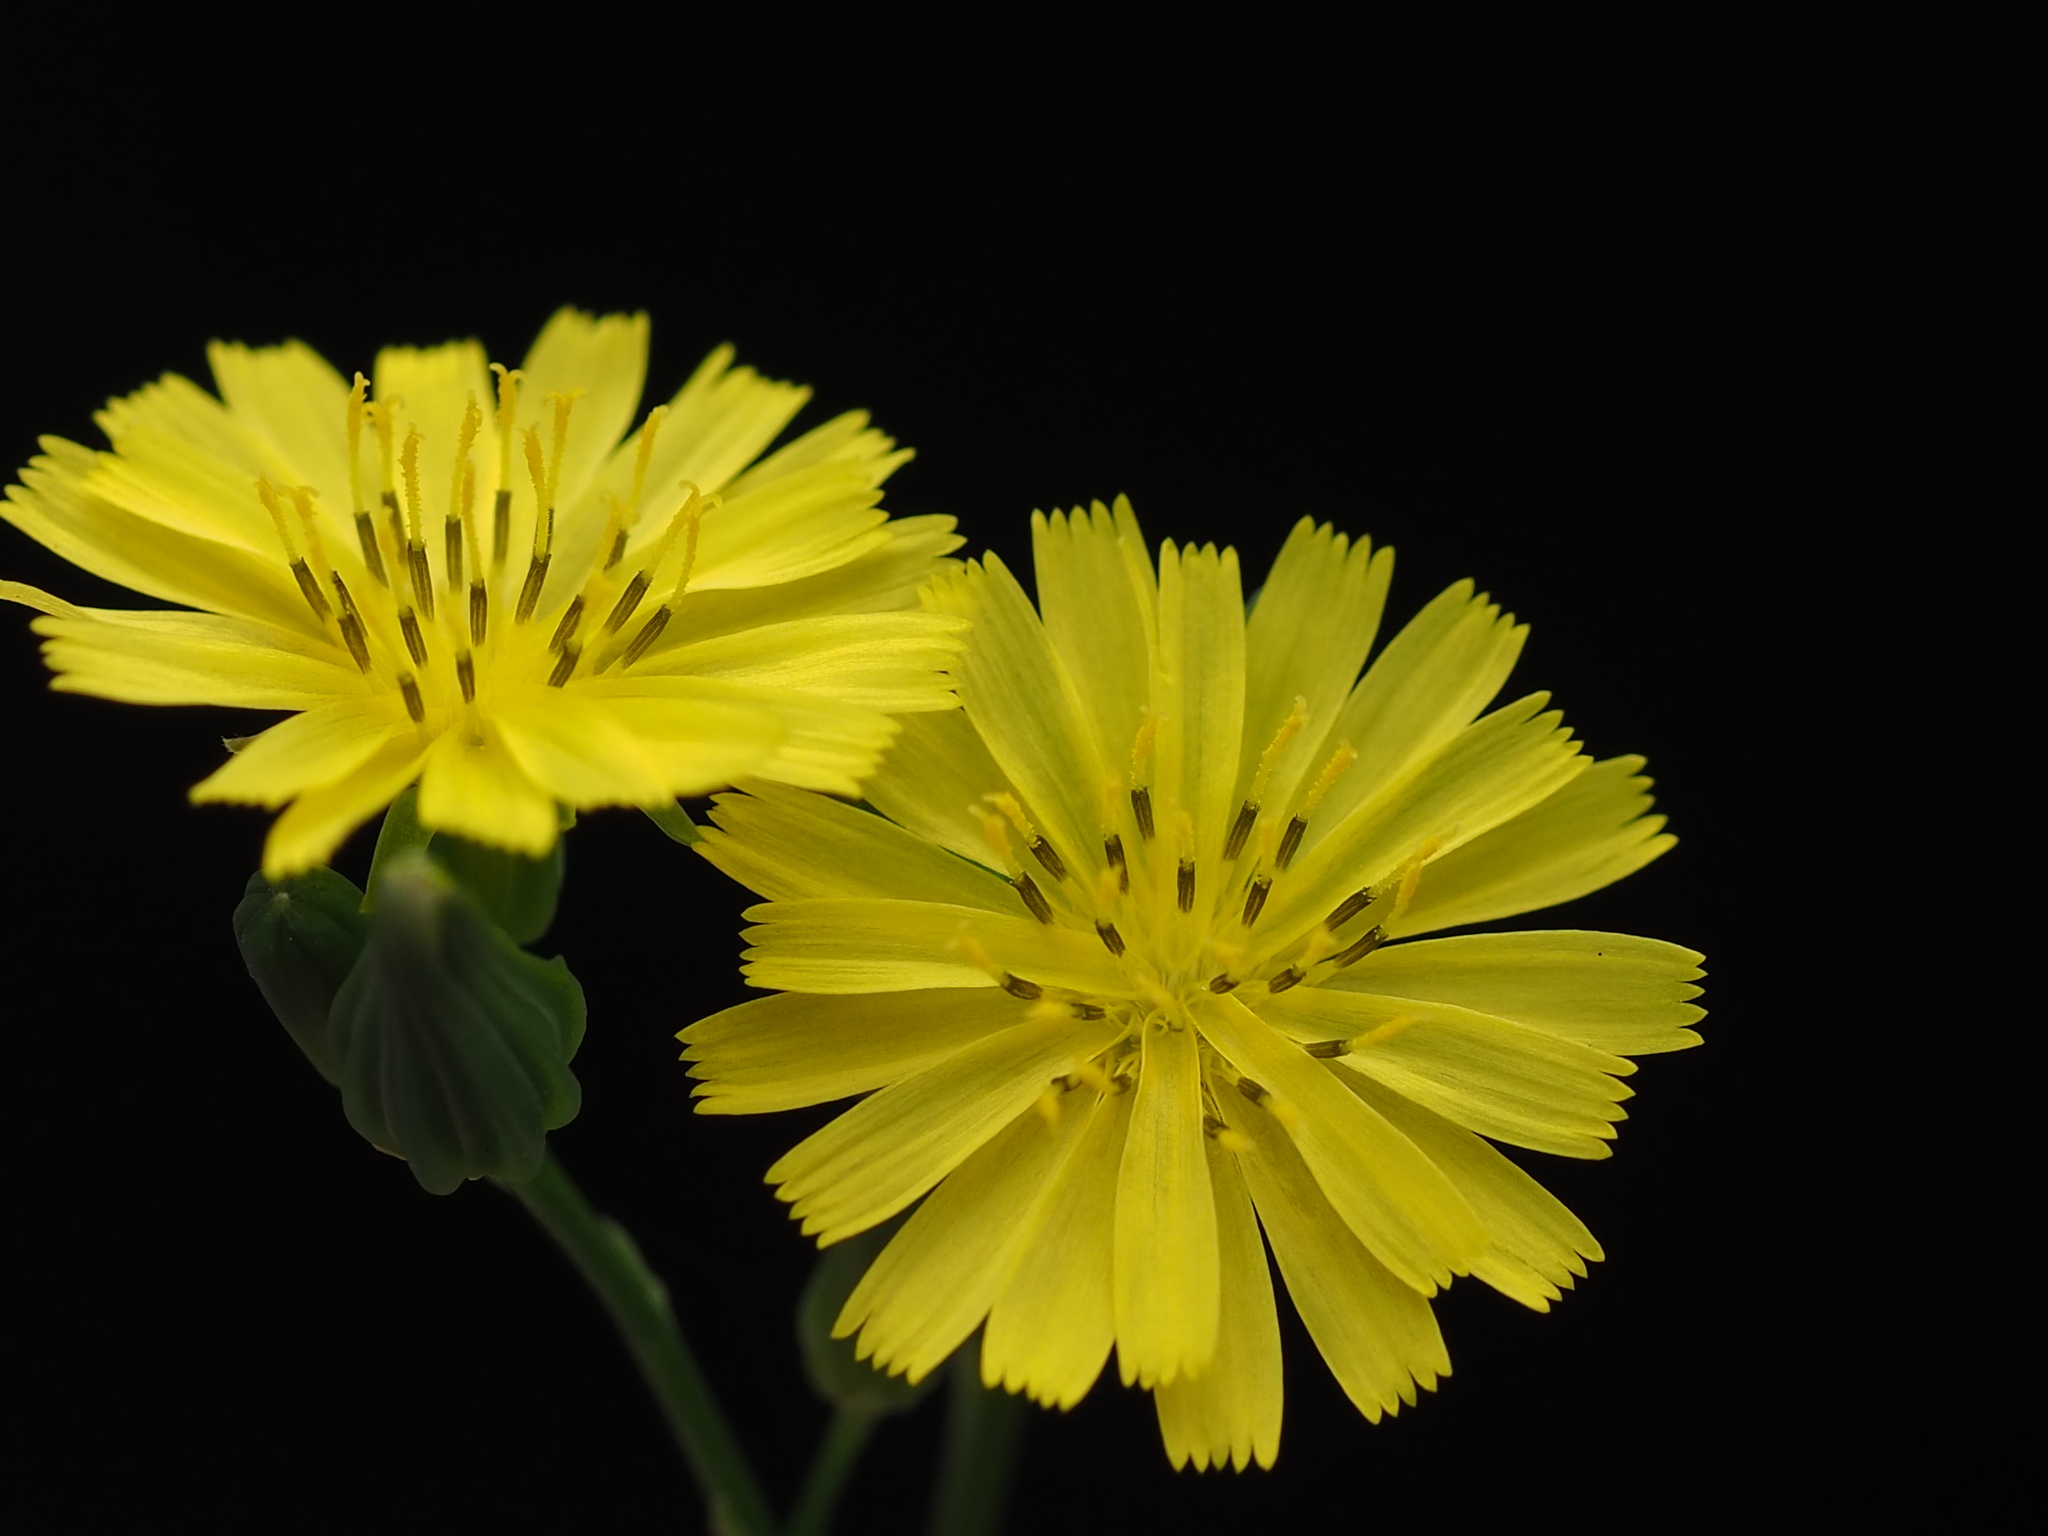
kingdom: Plantae
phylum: Tracheophyta
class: Magnoliopsida
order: Asterales
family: Asteraceae
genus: Youngia
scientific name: Youngia japonica
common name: Oriental false hawksbeard
